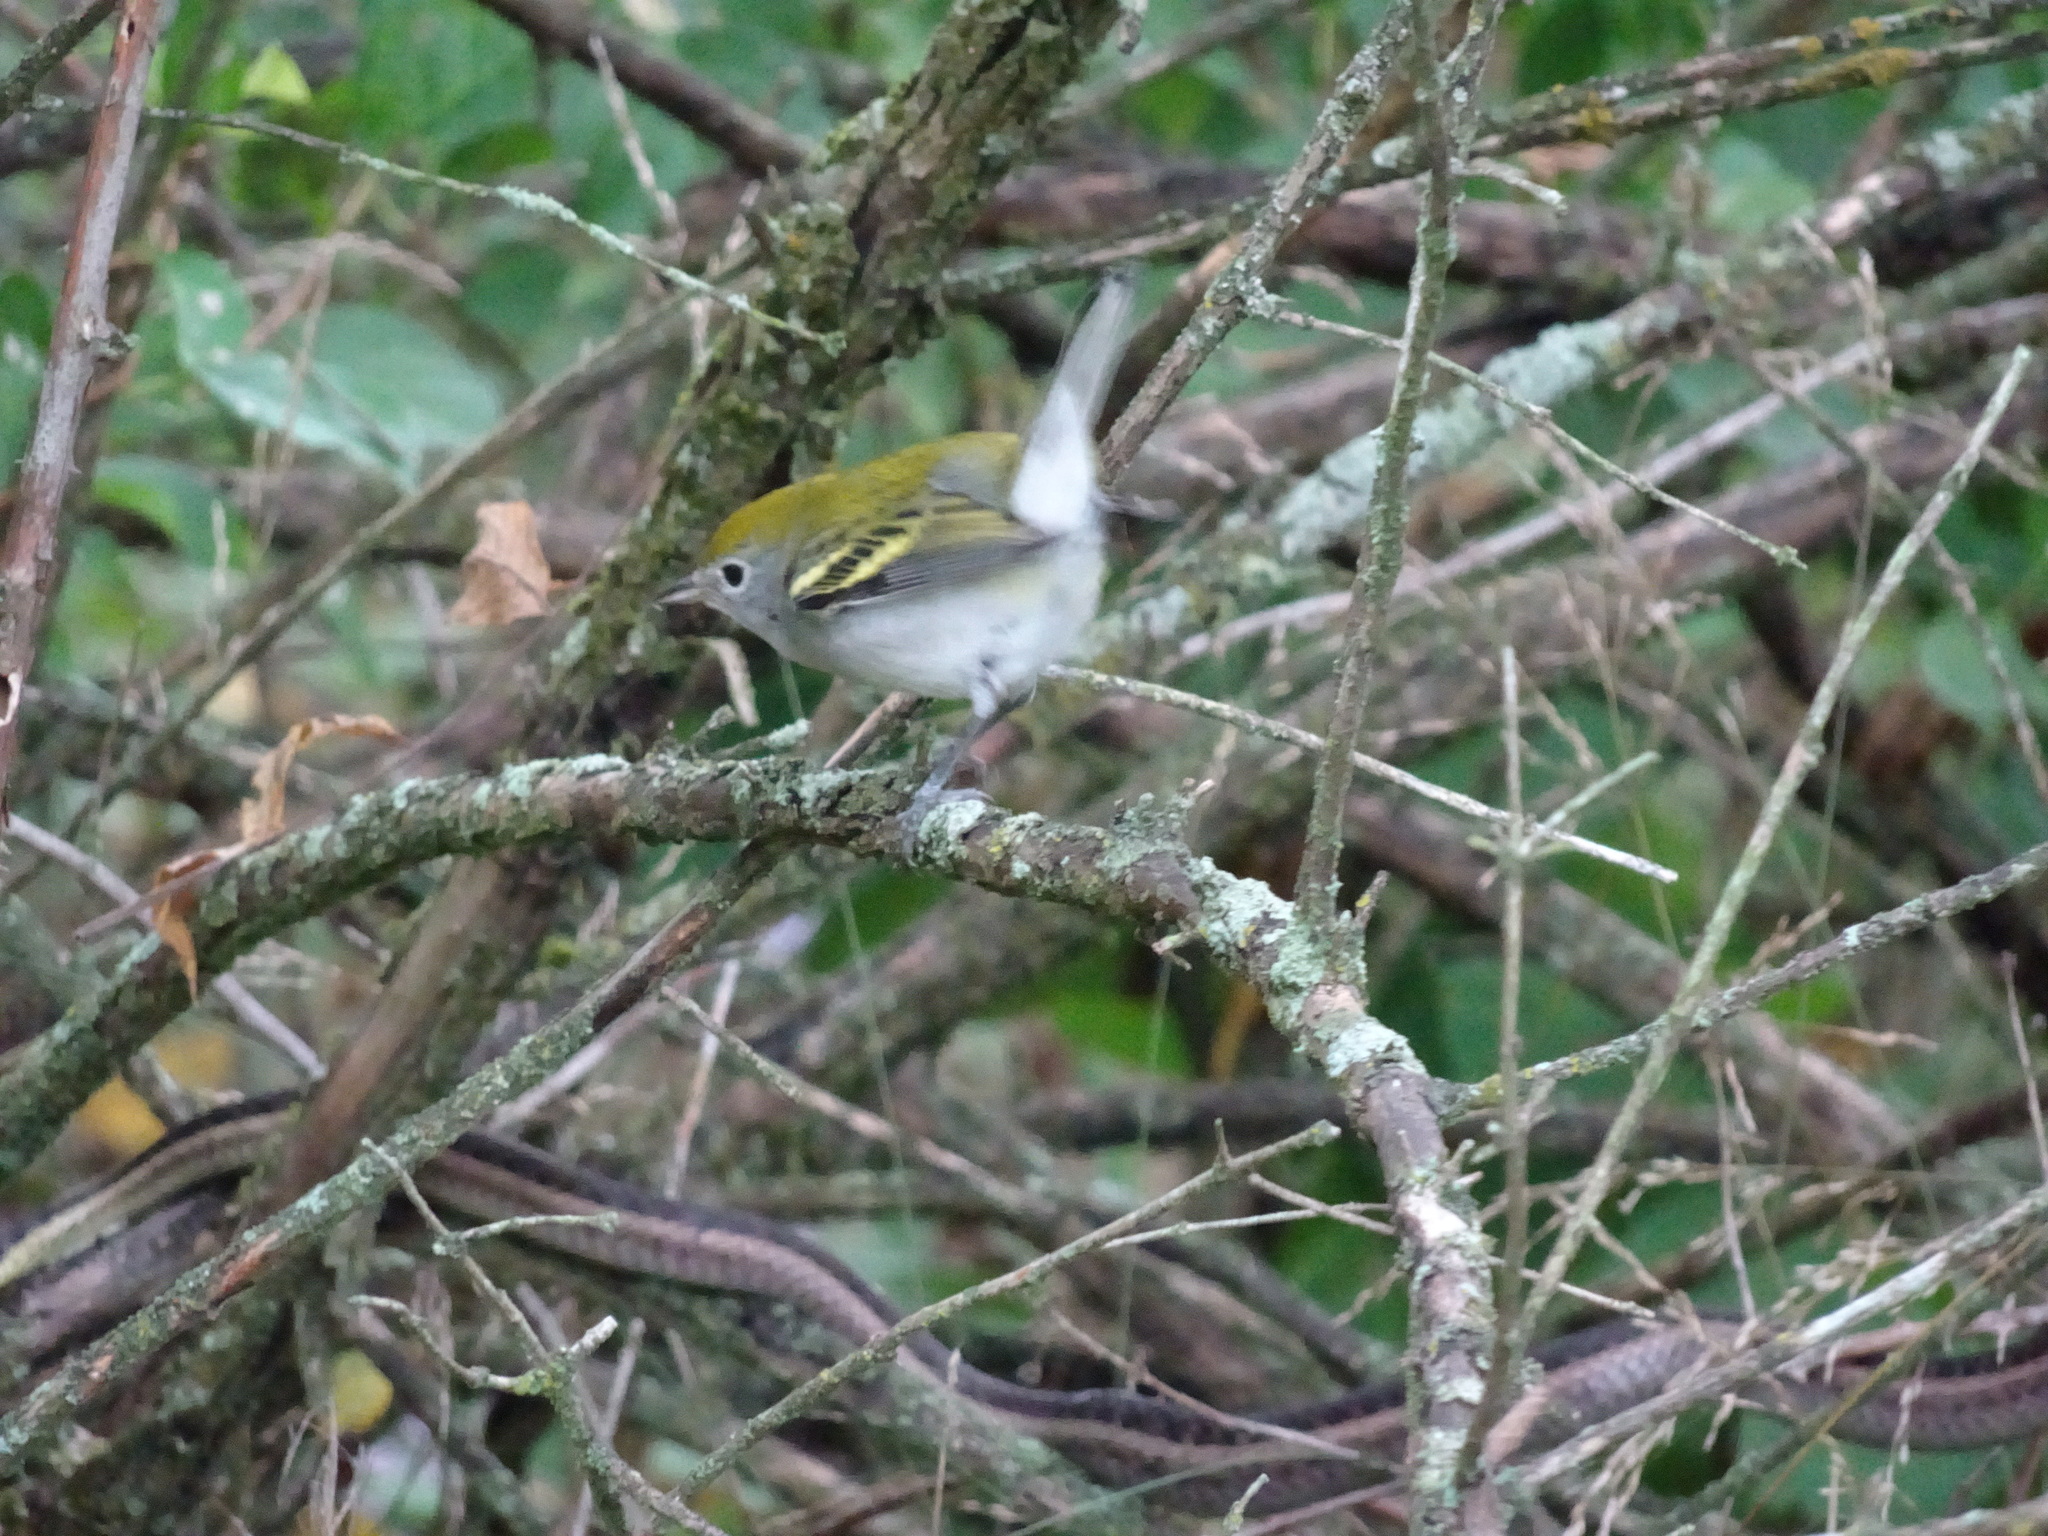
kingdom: Animalia
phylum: Chordata
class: Aves
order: Passeriformes
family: Parulidae
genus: Setophaga
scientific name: Setophaga pensylvanica
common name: Chestnut-sided warbler
